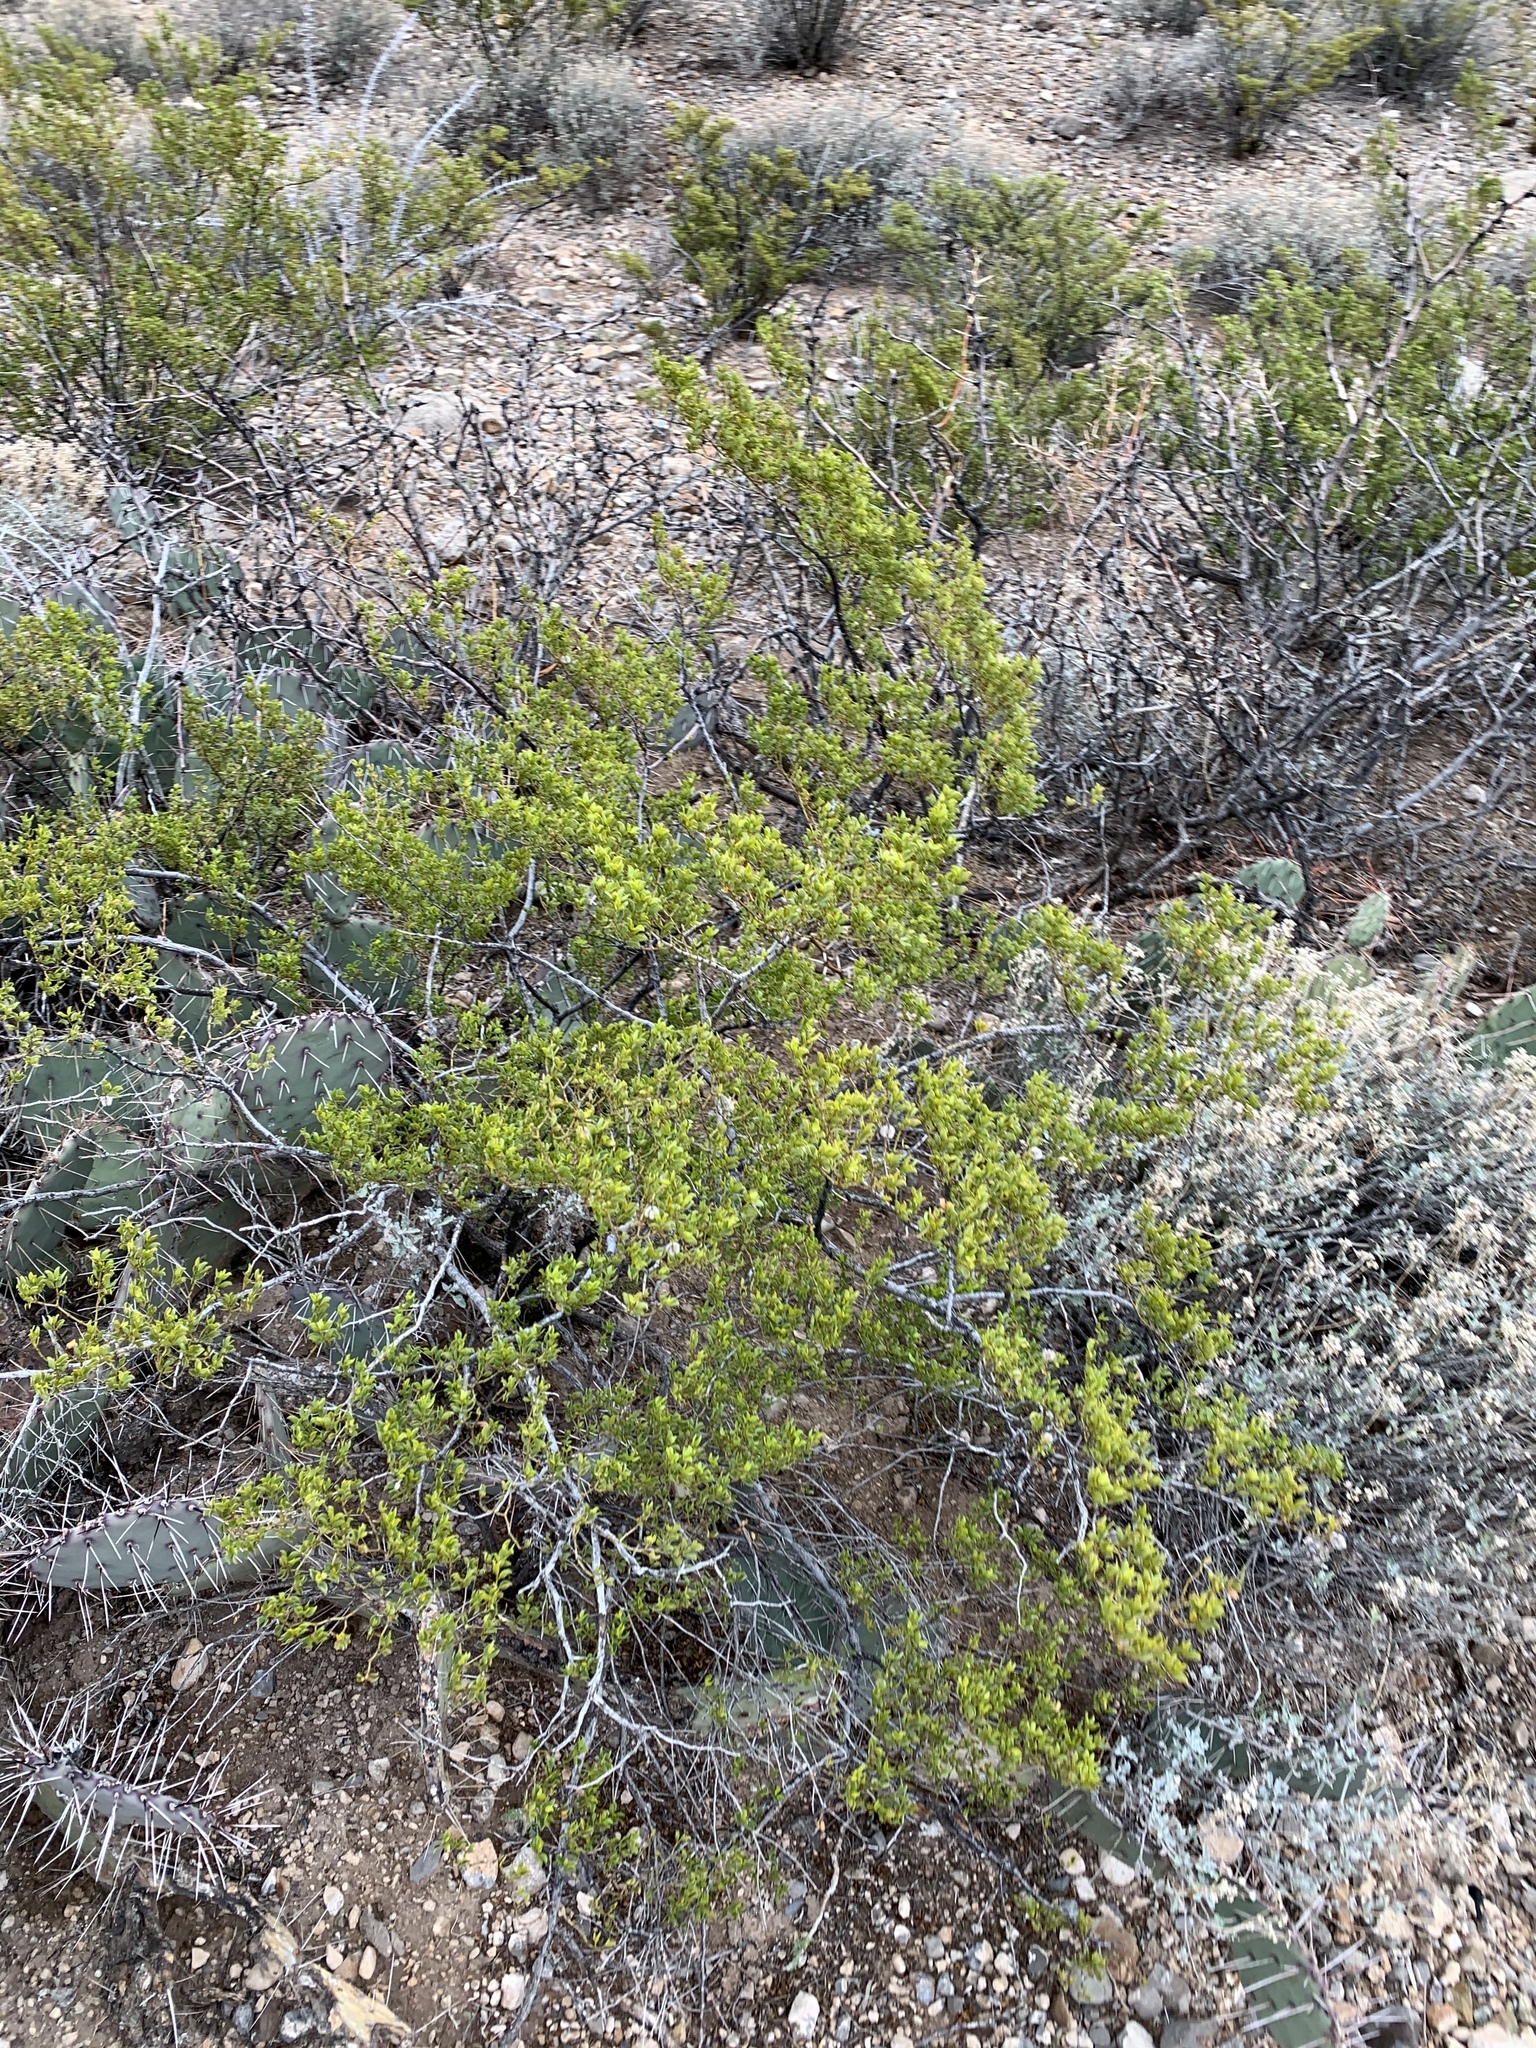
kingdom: Plantae
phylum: Tracheophyta
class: Magnoliopsida
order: Zygophyllales
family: Zygophyllaceae
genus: Larrea
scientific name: Larrea tridentata
